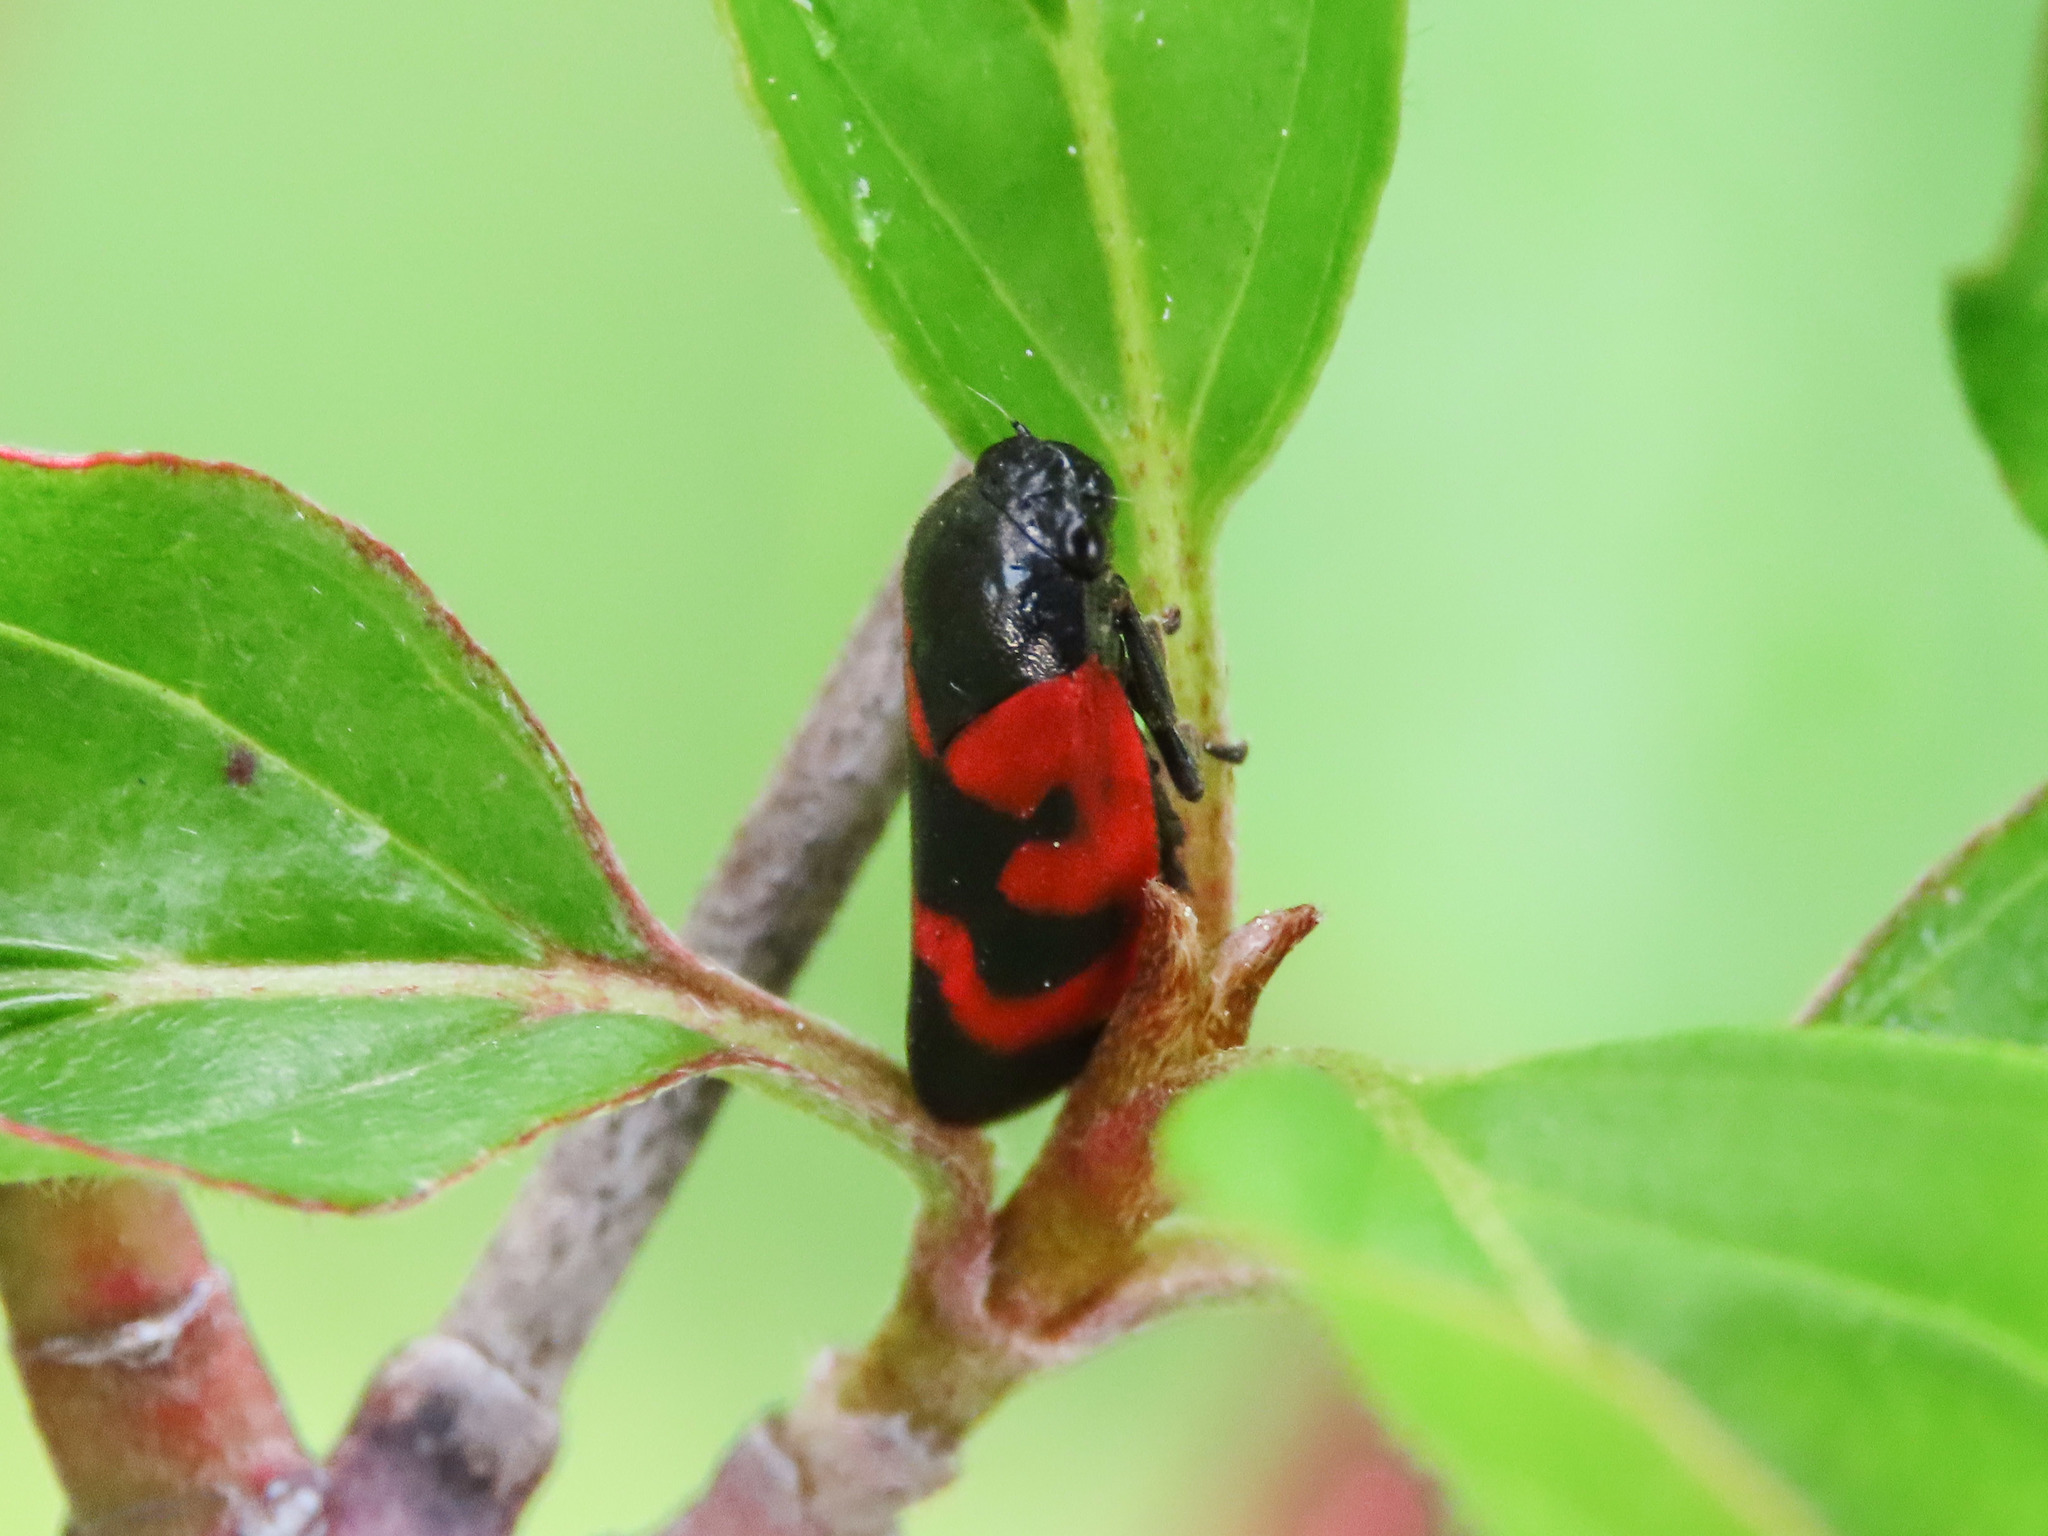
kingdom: Animalia
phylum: Arthropoda
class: Insecta
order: Hemiptera
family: Cercopidae
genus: Haematoloma
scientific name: Haematoloma dorsata
